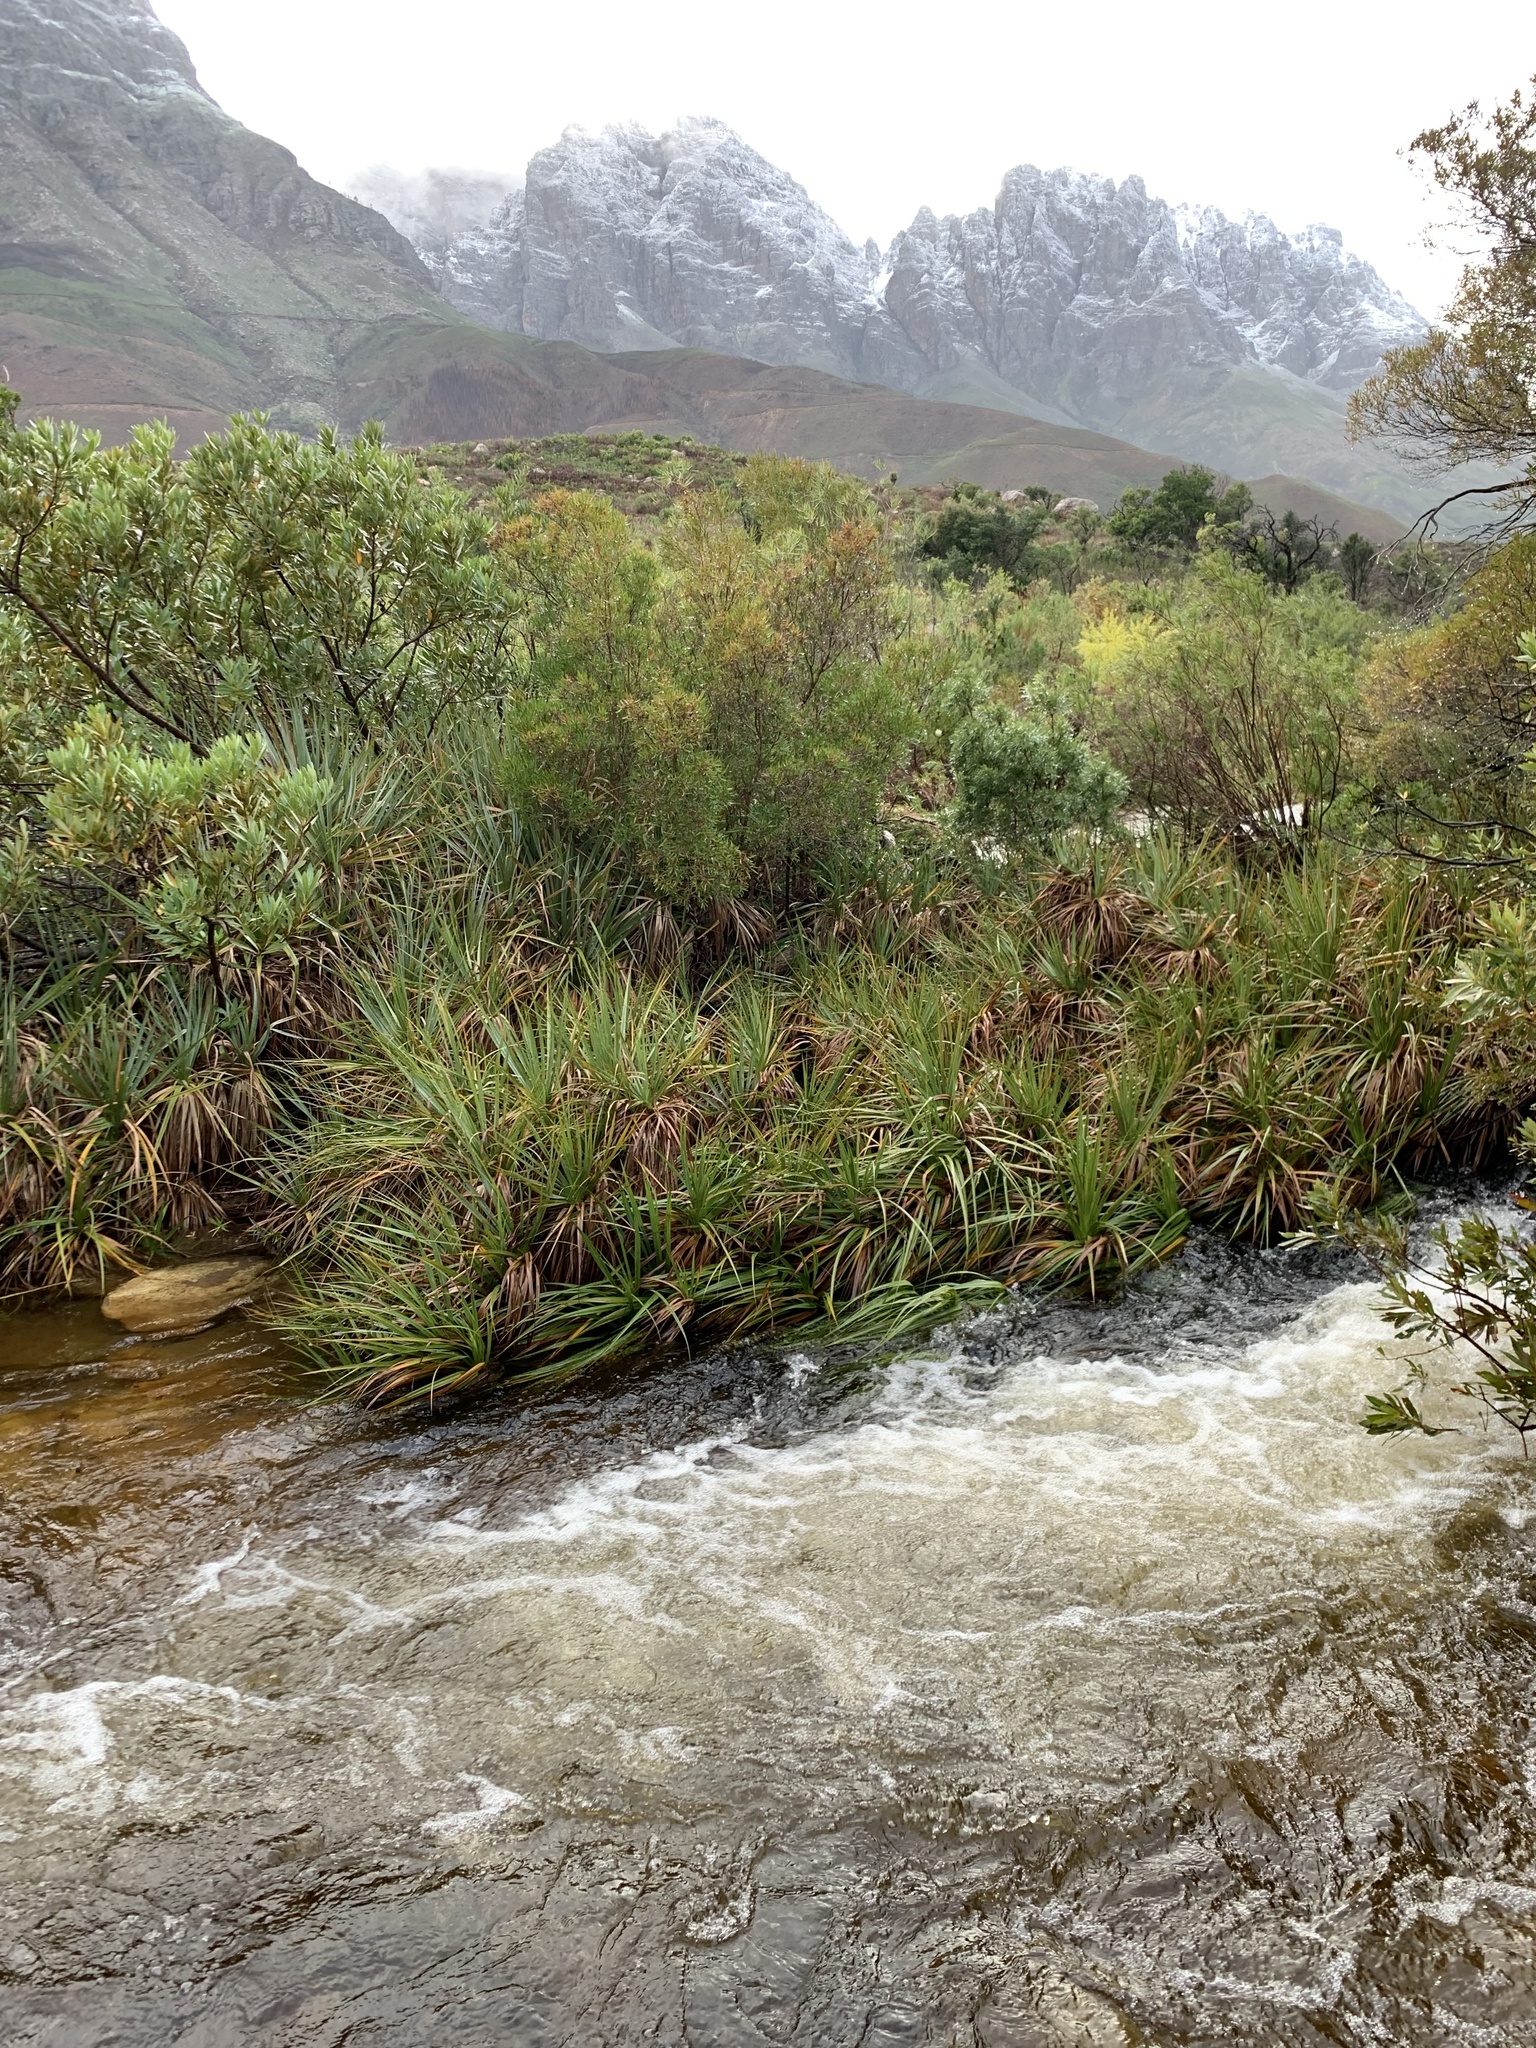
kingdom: Plantae
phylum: Tracheophyta
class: Liliopsida
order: Poales
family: Thurniaceae
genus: Prionium
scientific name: Prionium serratum
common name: Palmiet
